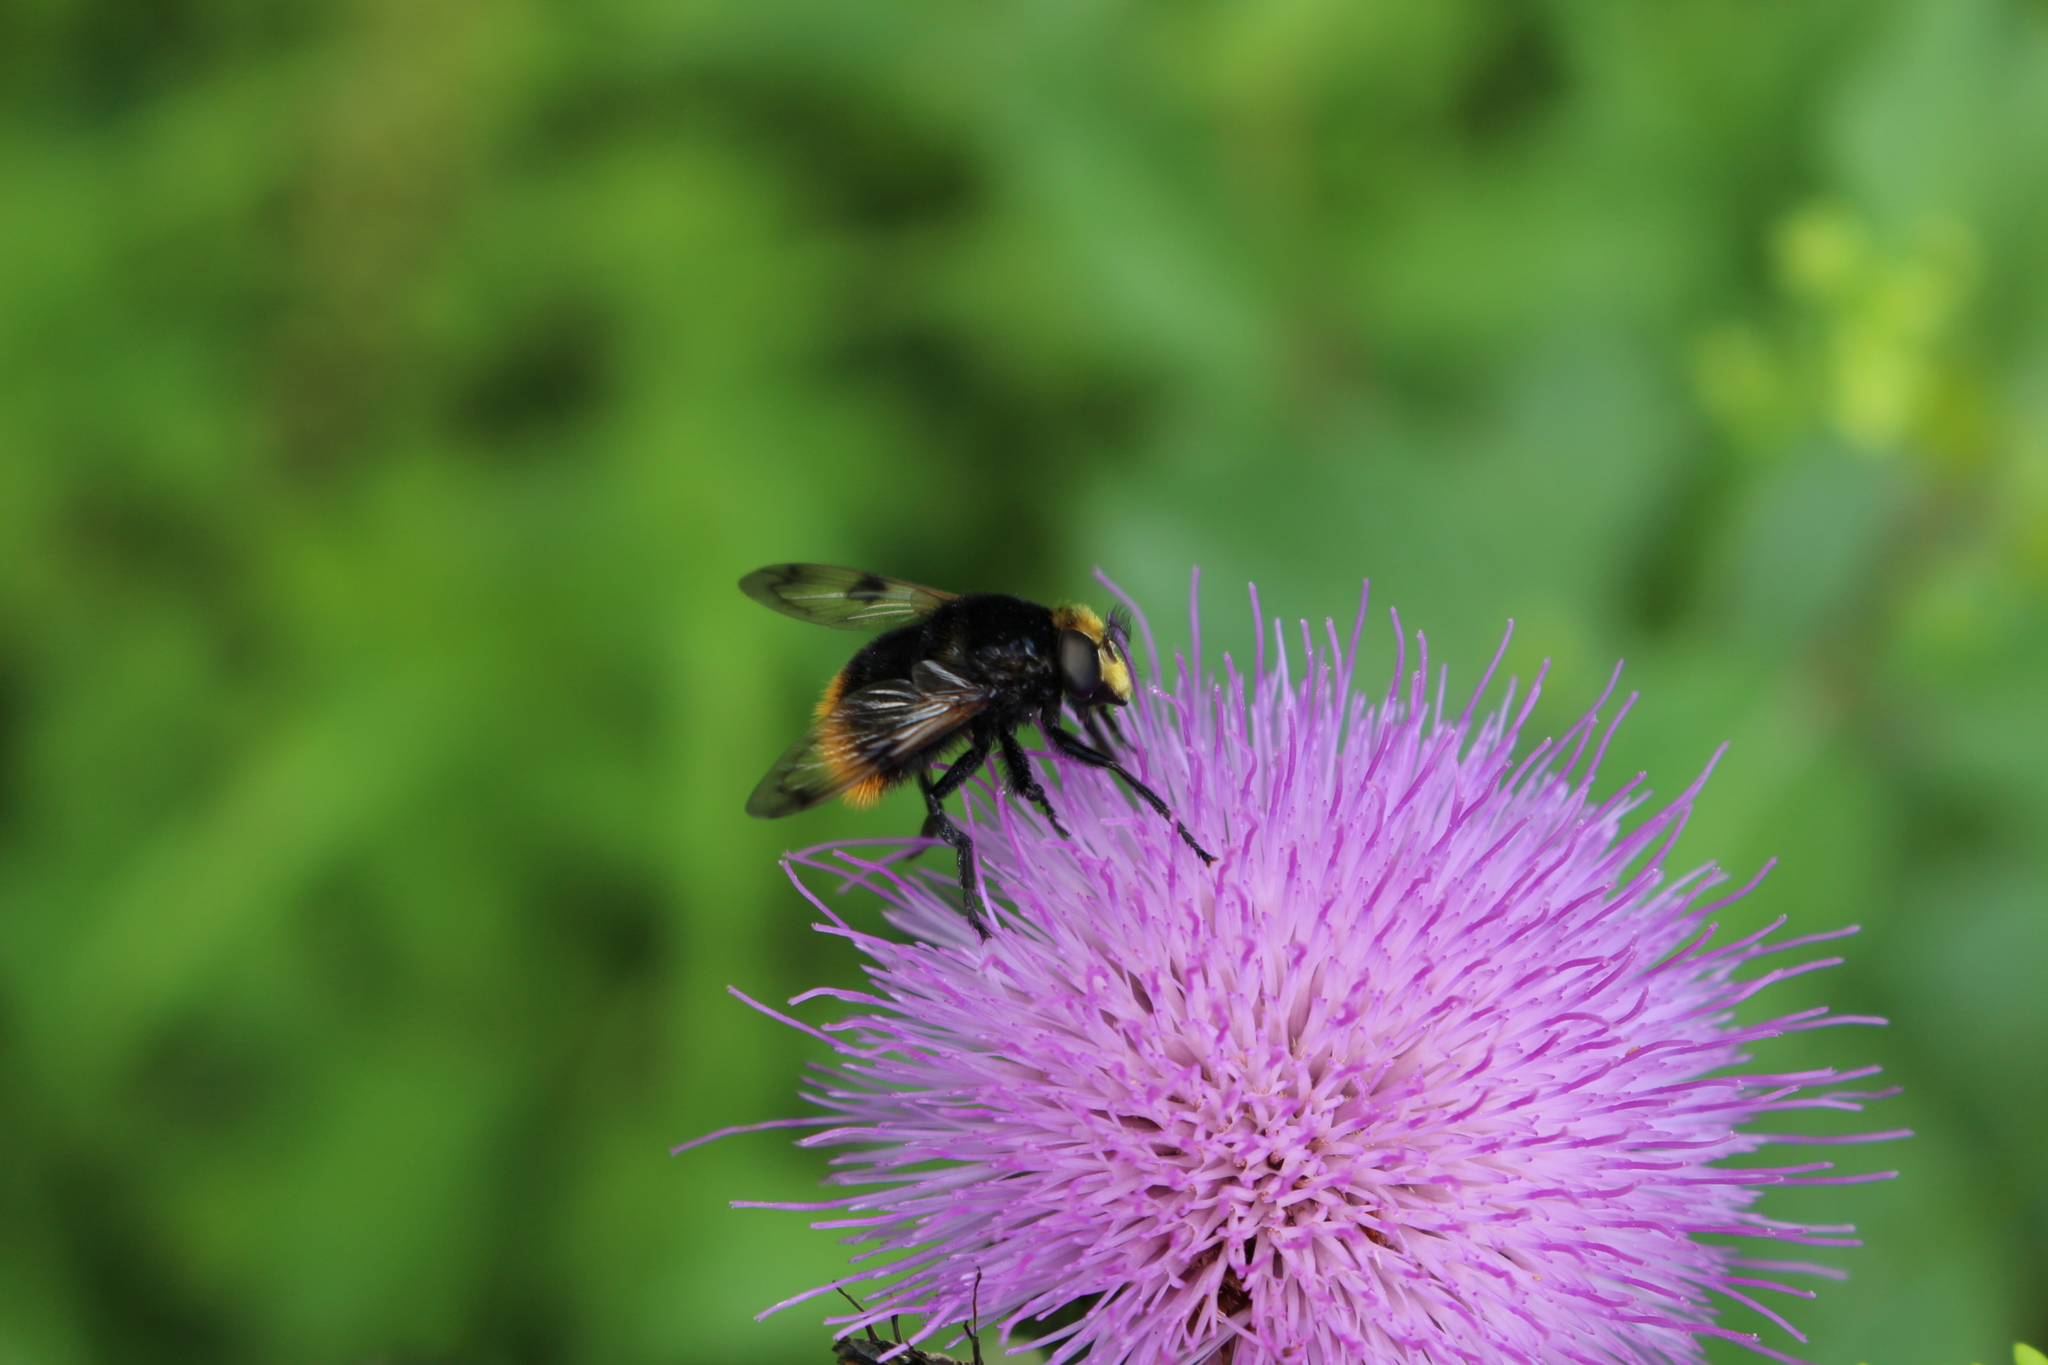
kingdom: Animalia
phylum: Arthropoda
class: Insecta
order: Diptera
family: Syrphidae
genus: Volucella
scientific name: Volucella bombylans
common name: Bumble bee hover fly
